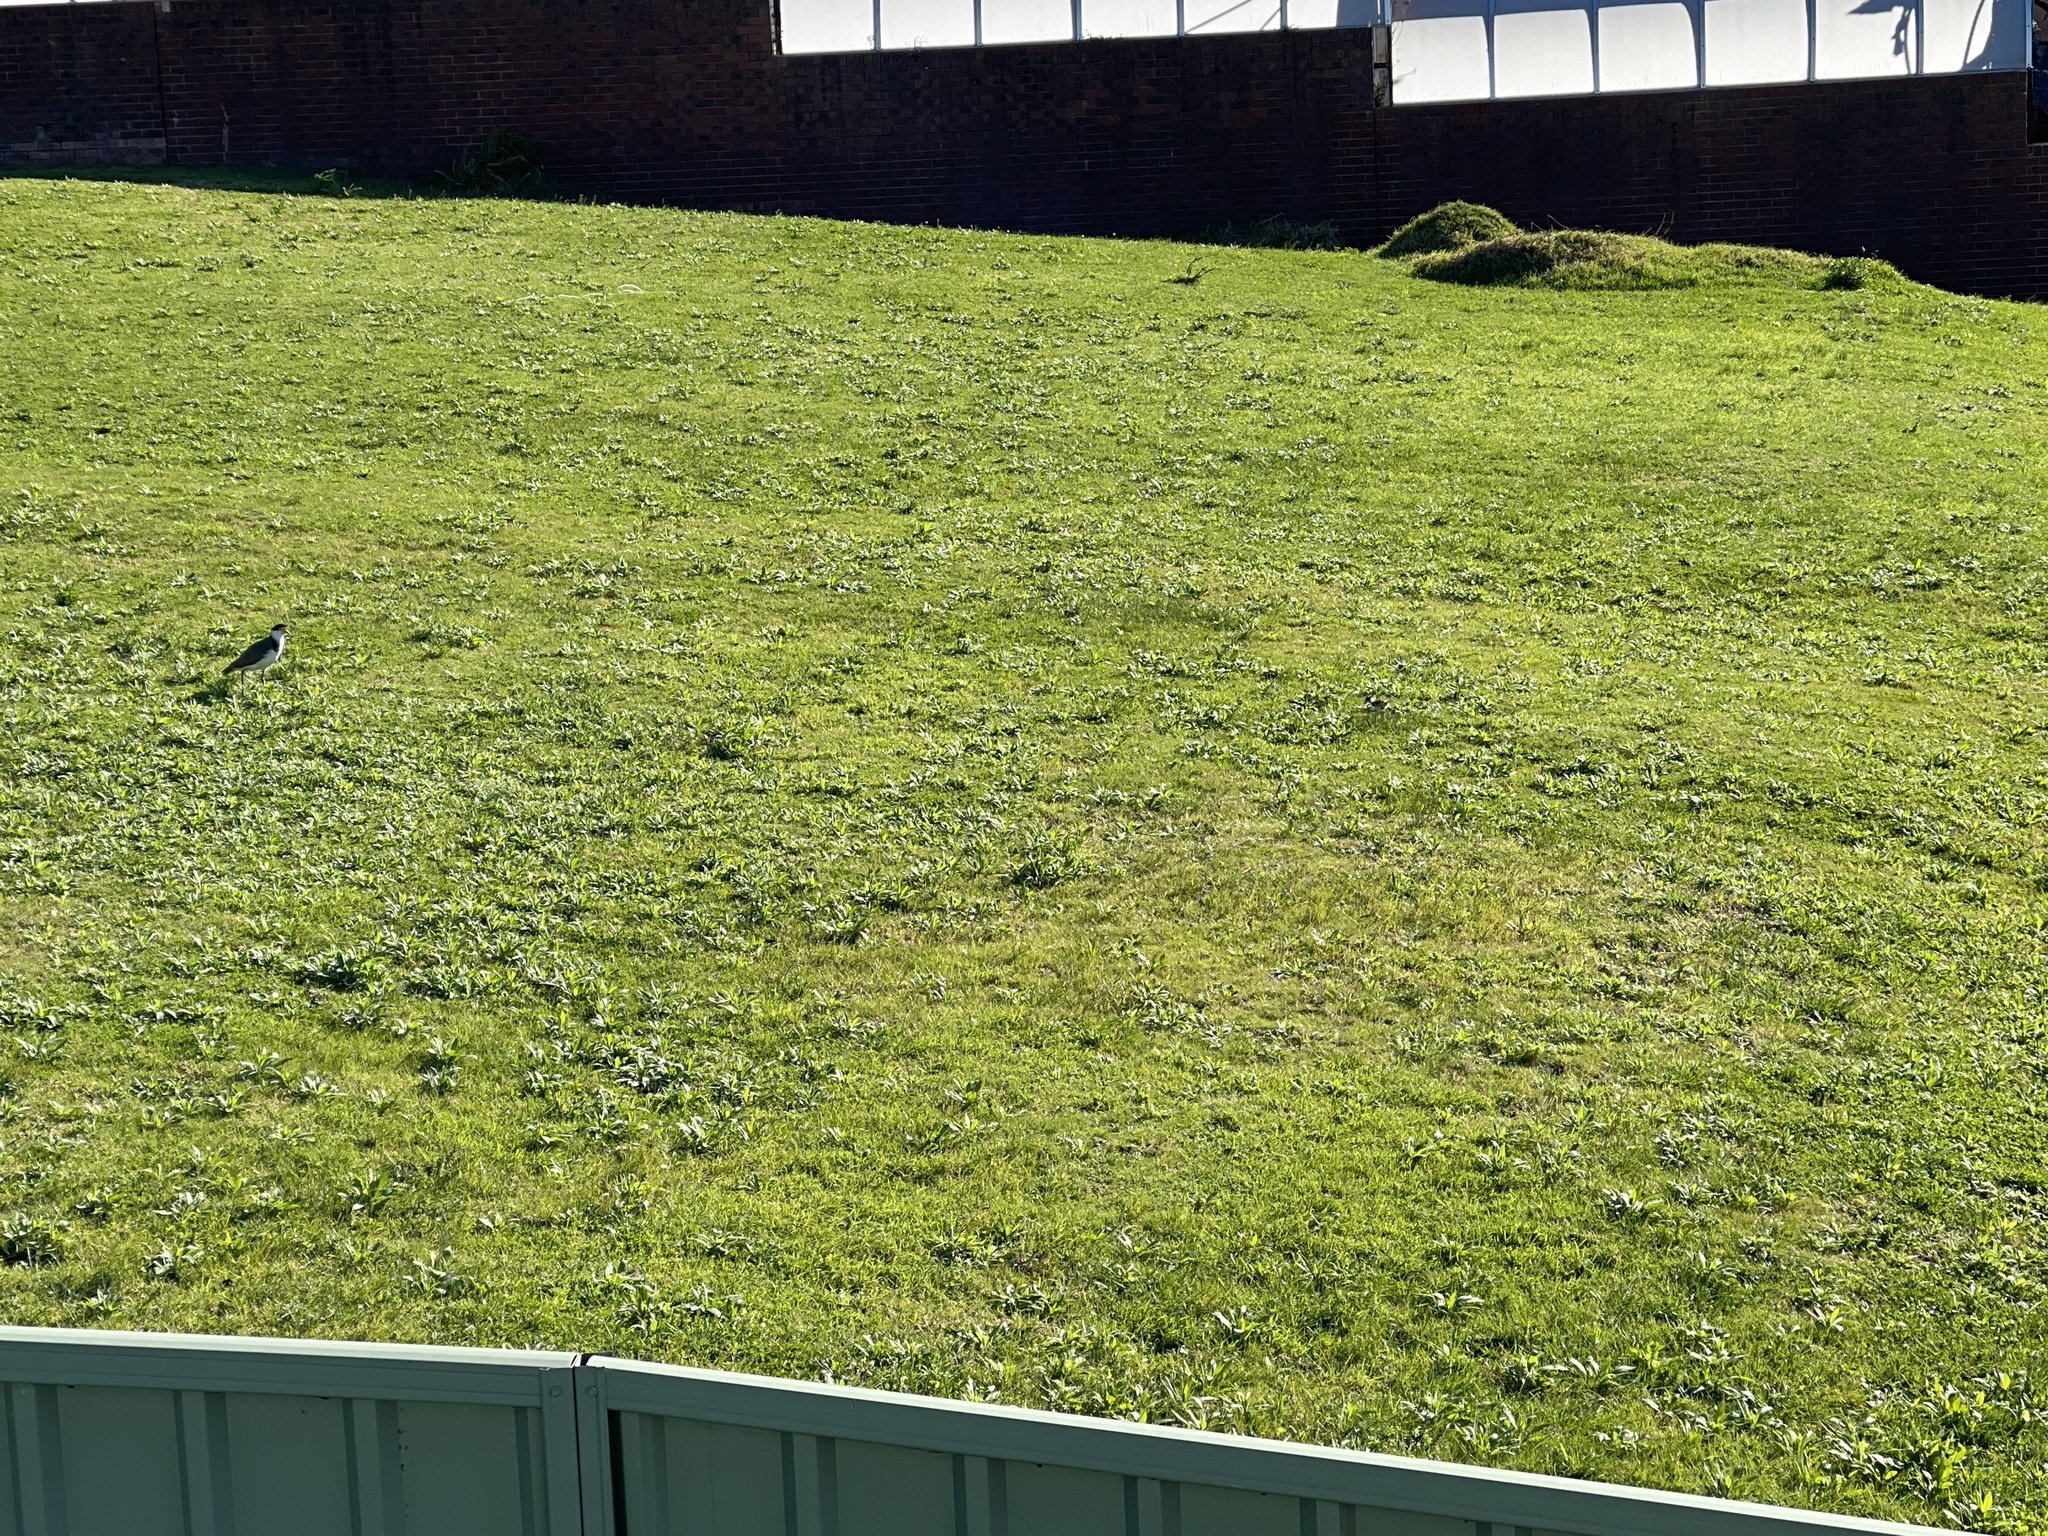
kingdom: Animalia
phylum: Chordata
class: Aves
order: Charadriiformes
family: Charadriidae
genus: Vanellus
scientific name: Vanellus miles
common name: Masked lapwing
